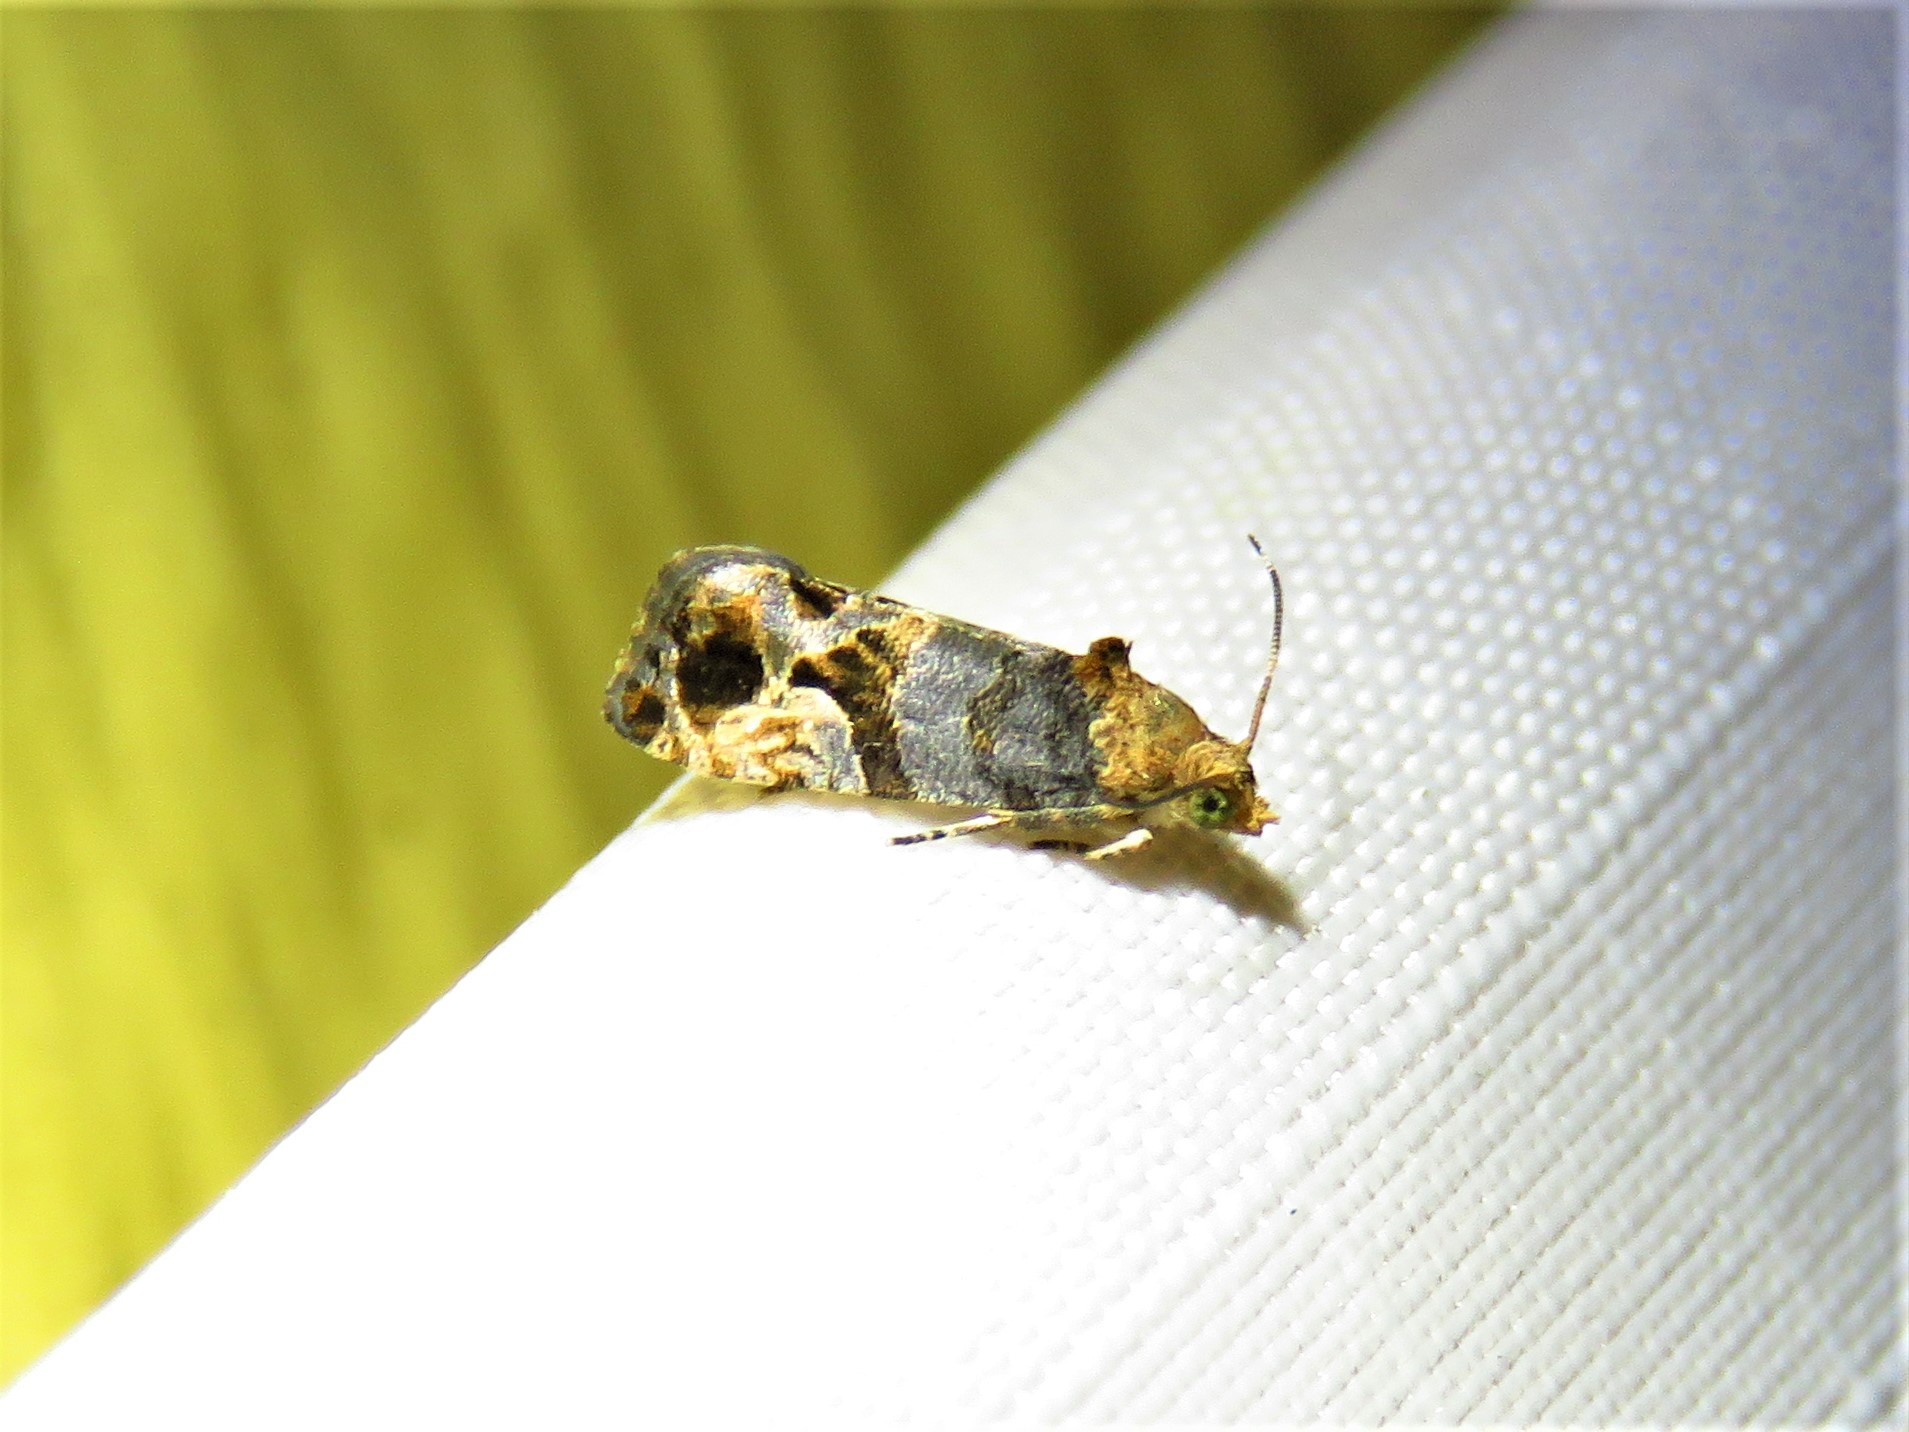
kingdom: Animalia
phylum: Arthropoda
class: Insecta
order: Lepidoptera
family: Tortricidae
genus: Paralobesia
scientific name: Paralobesia viteana
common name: Grape berry moth
